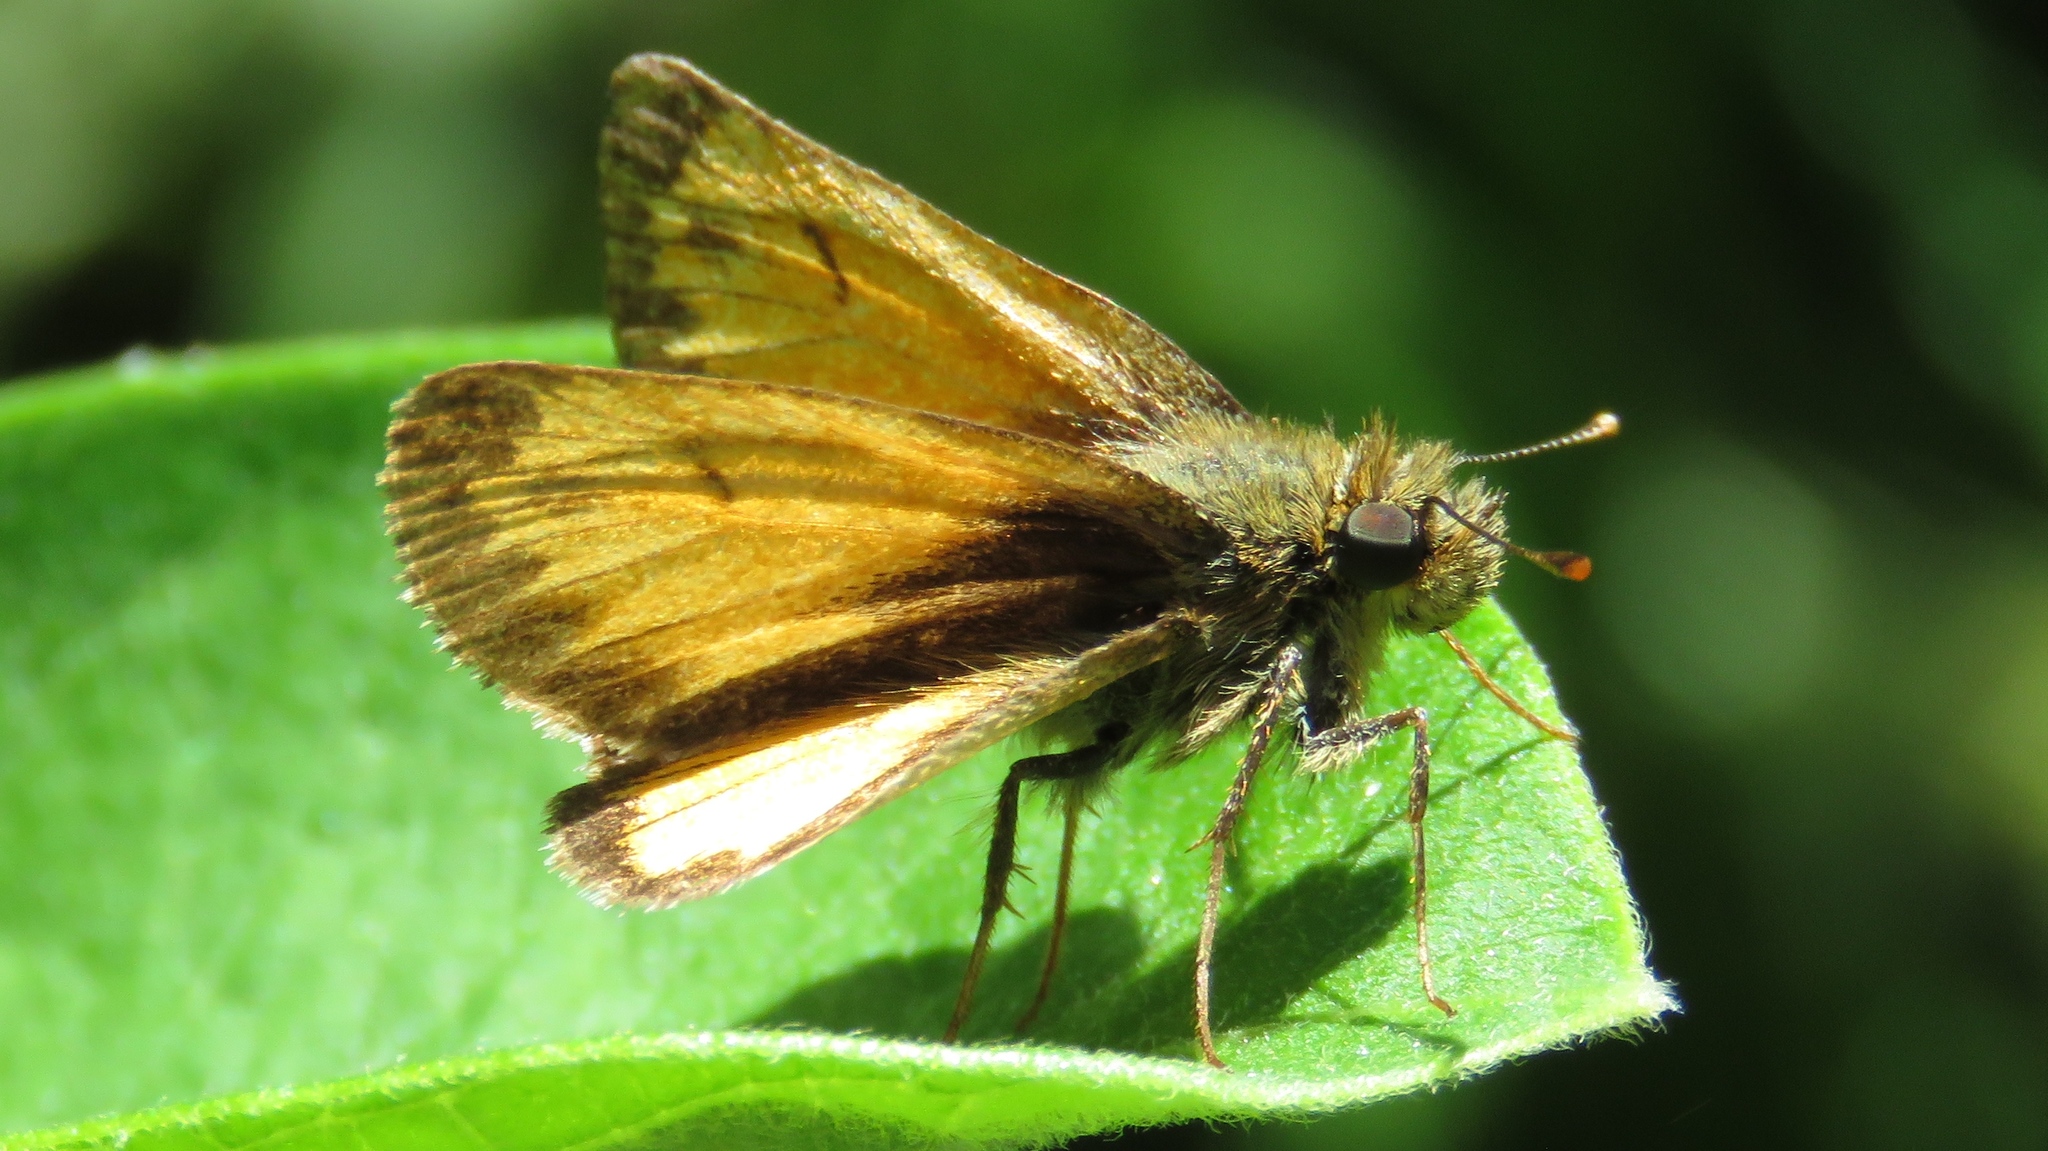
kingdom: Animalia
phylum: Arthropoda
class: Insecta
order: Lepidoptera
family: Hesperiidae
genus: Lon
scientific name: Lon hobomok
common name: Hobomok skipper
